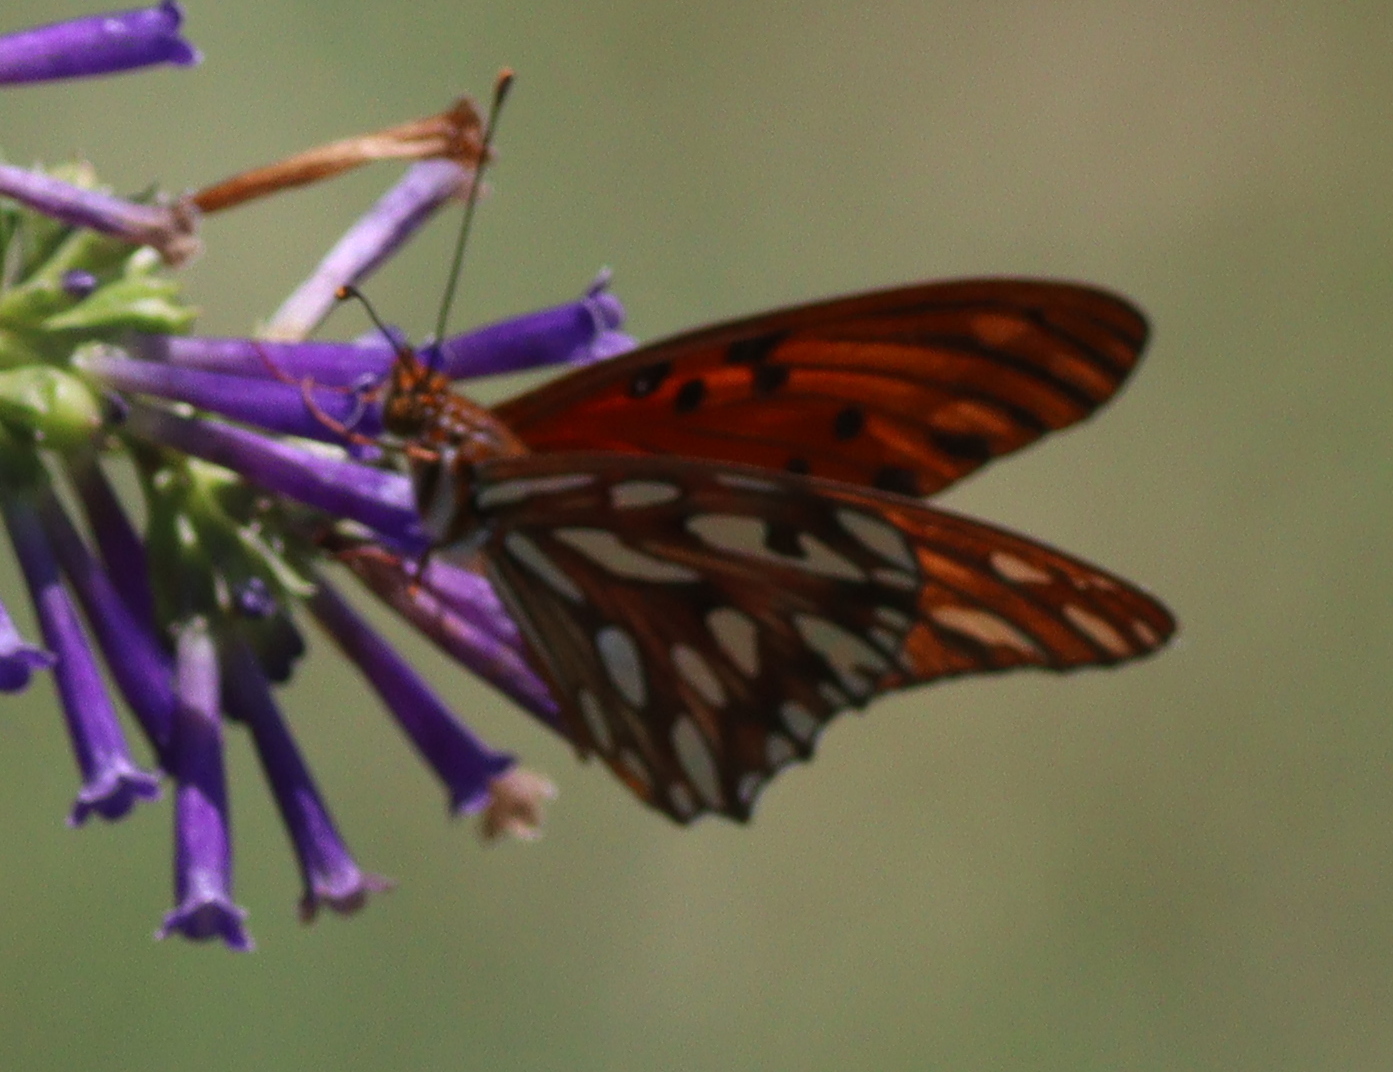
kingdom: Animalia
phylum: Arthropoda
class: Insecta
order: Lepidoptera
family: Nymphalidae
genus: Dione
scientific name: Dione vanillae
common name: Gulf fritillary
